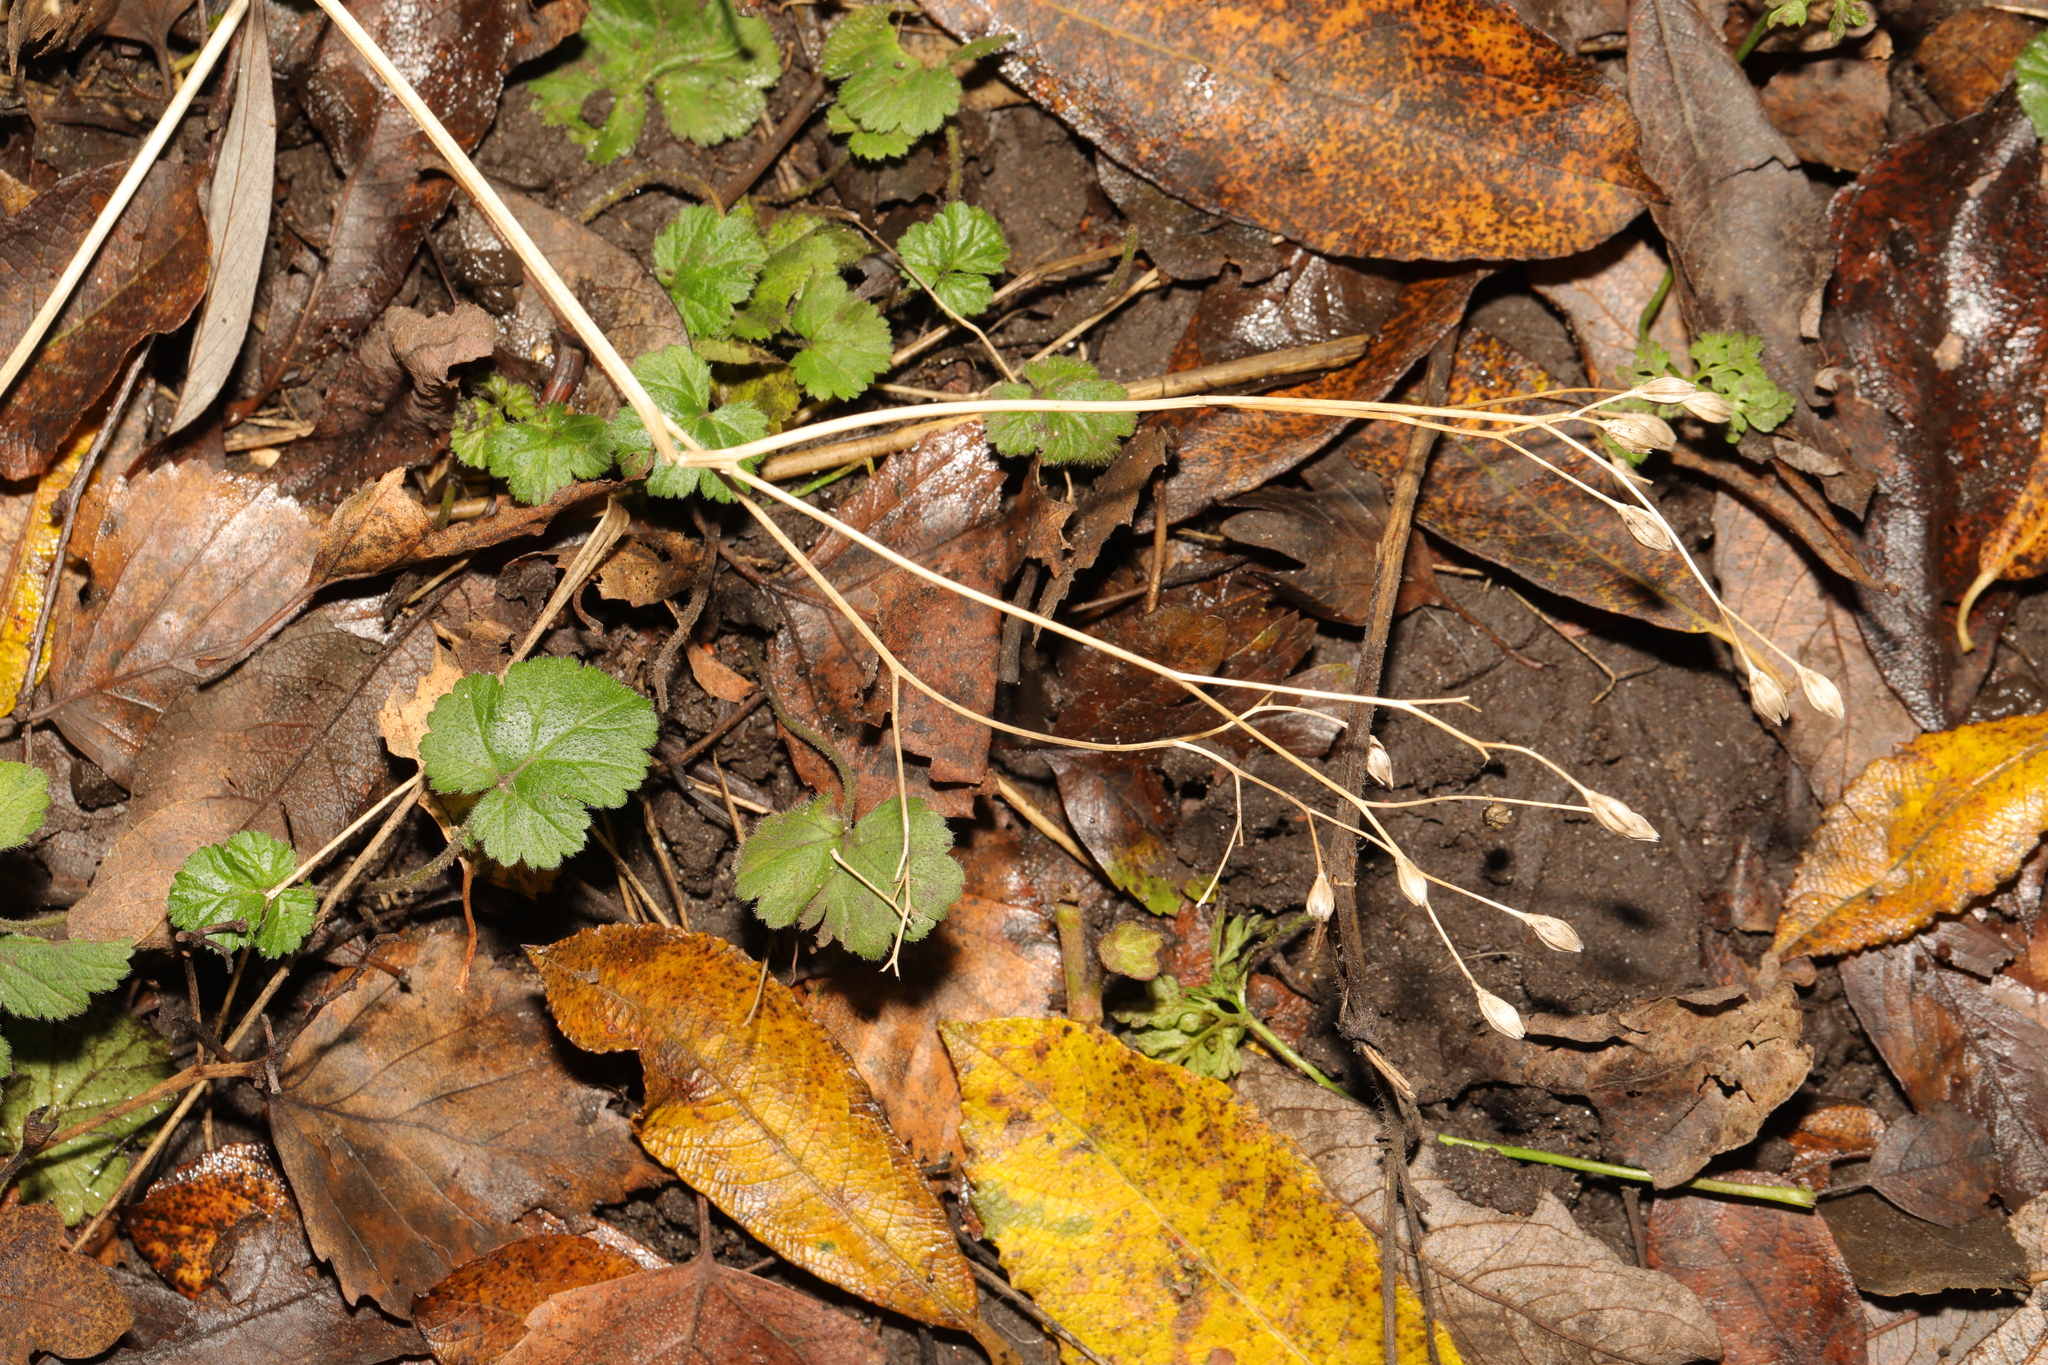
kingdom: Plantae
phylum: Tracheophyta
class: Magnoliopsida
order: Asterales
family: Asteraceae
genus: Lapsana
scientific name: Lapsana communis
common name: Nipplewort
